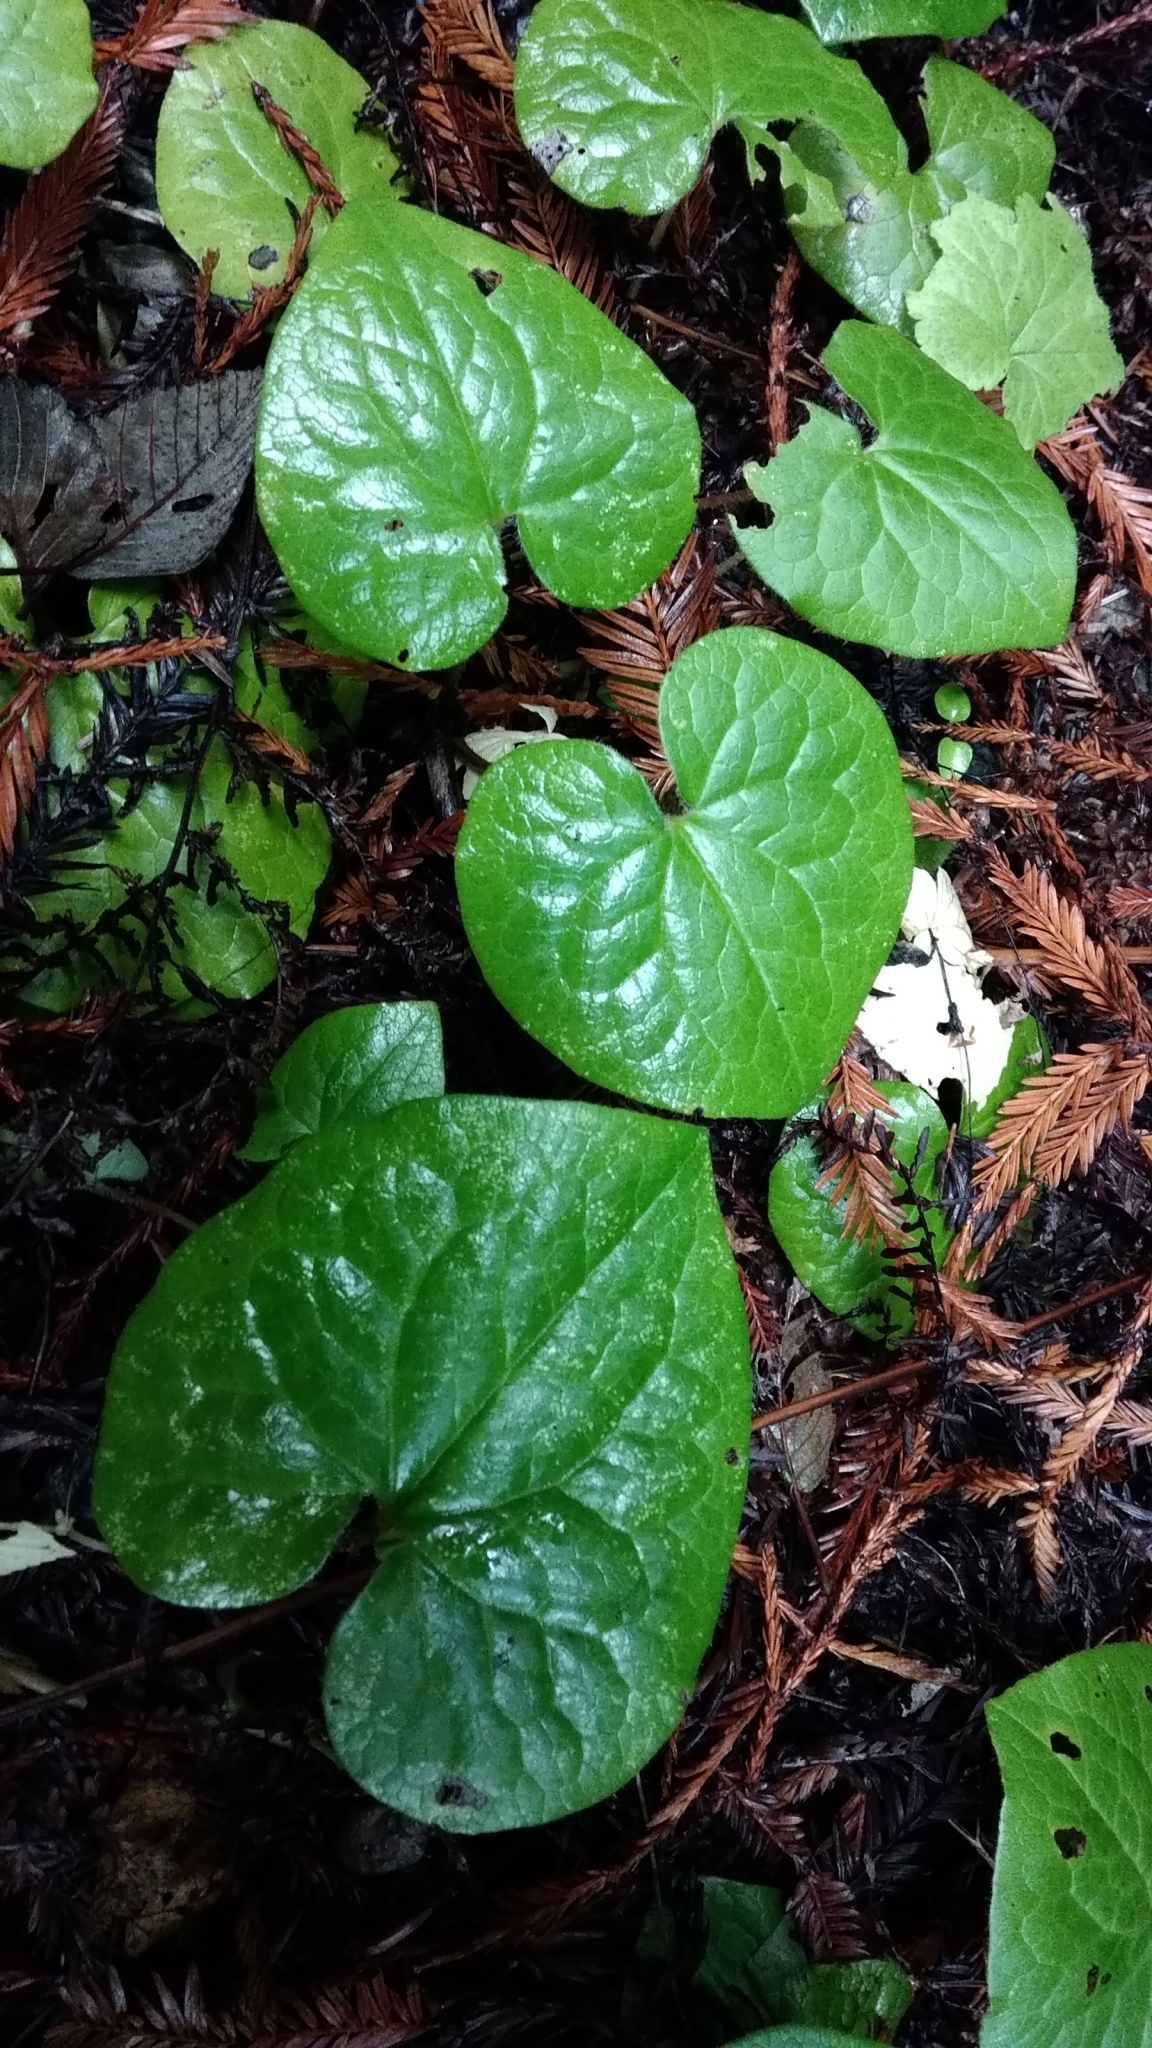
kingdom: Plantae
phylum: Tracheophyta
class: Magnoliopsida
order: Piperales
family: Aristolochiaceae
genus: Asarum
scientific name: Asarum caudatum
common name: Wild ginger
